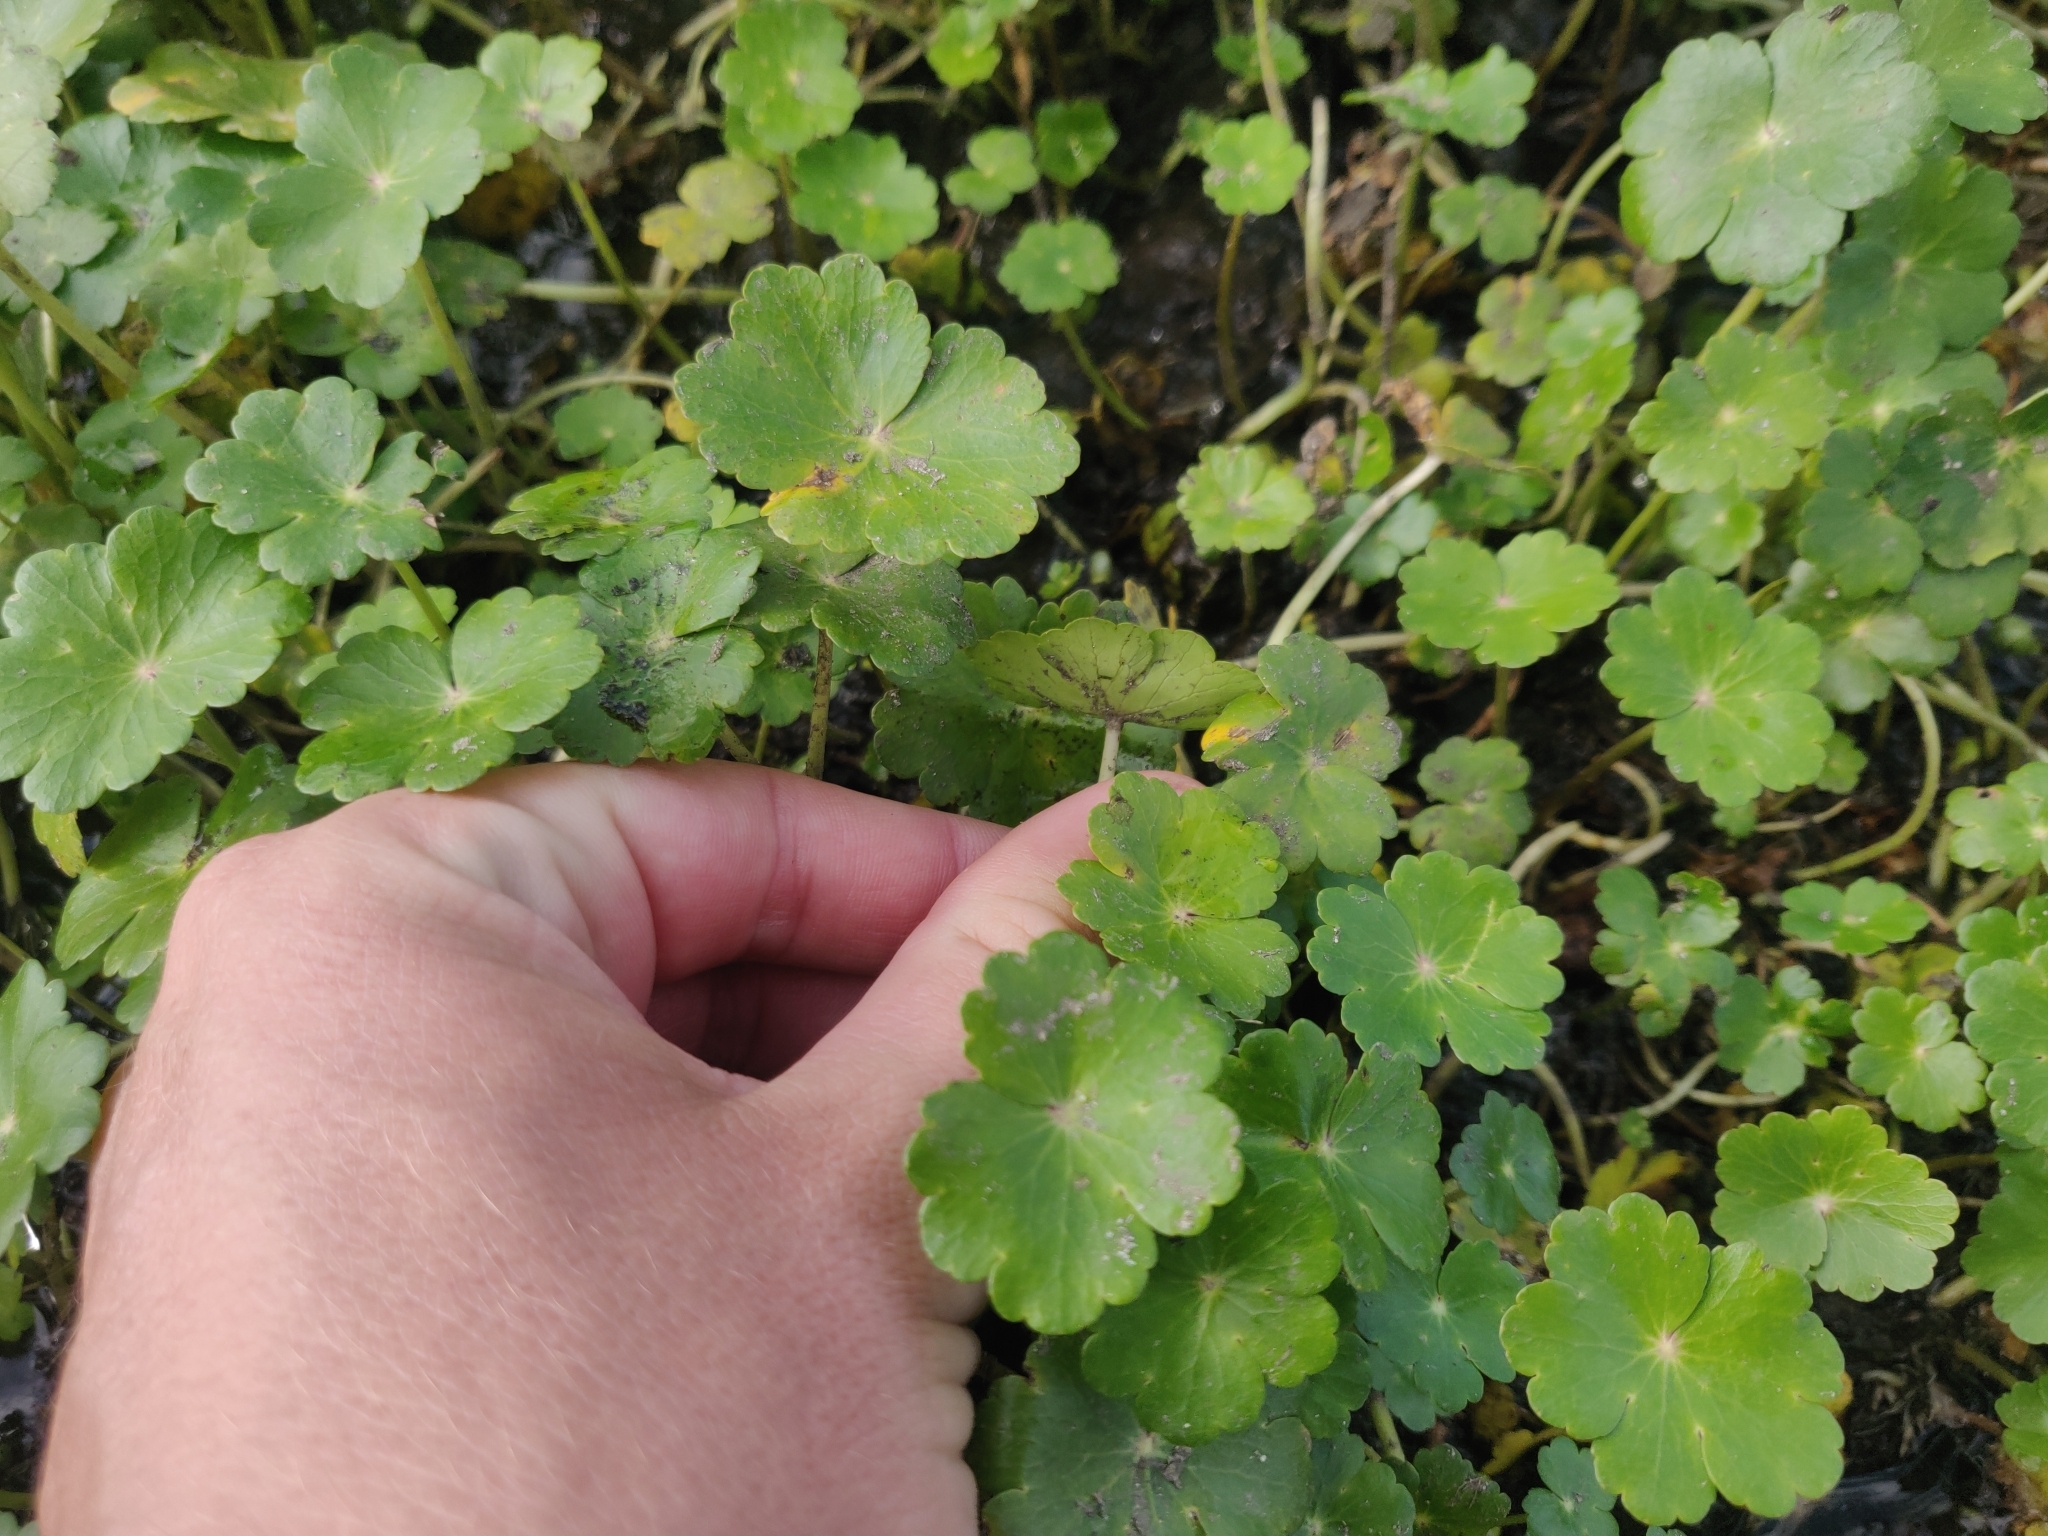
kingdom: Plantae
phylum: Tracheophyta
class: Magnoliopsida
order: Apiales
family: Araliaceae
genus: Hydrocotyle
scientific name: Hydrocotyle ranunculoides
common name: Floating pennywort
